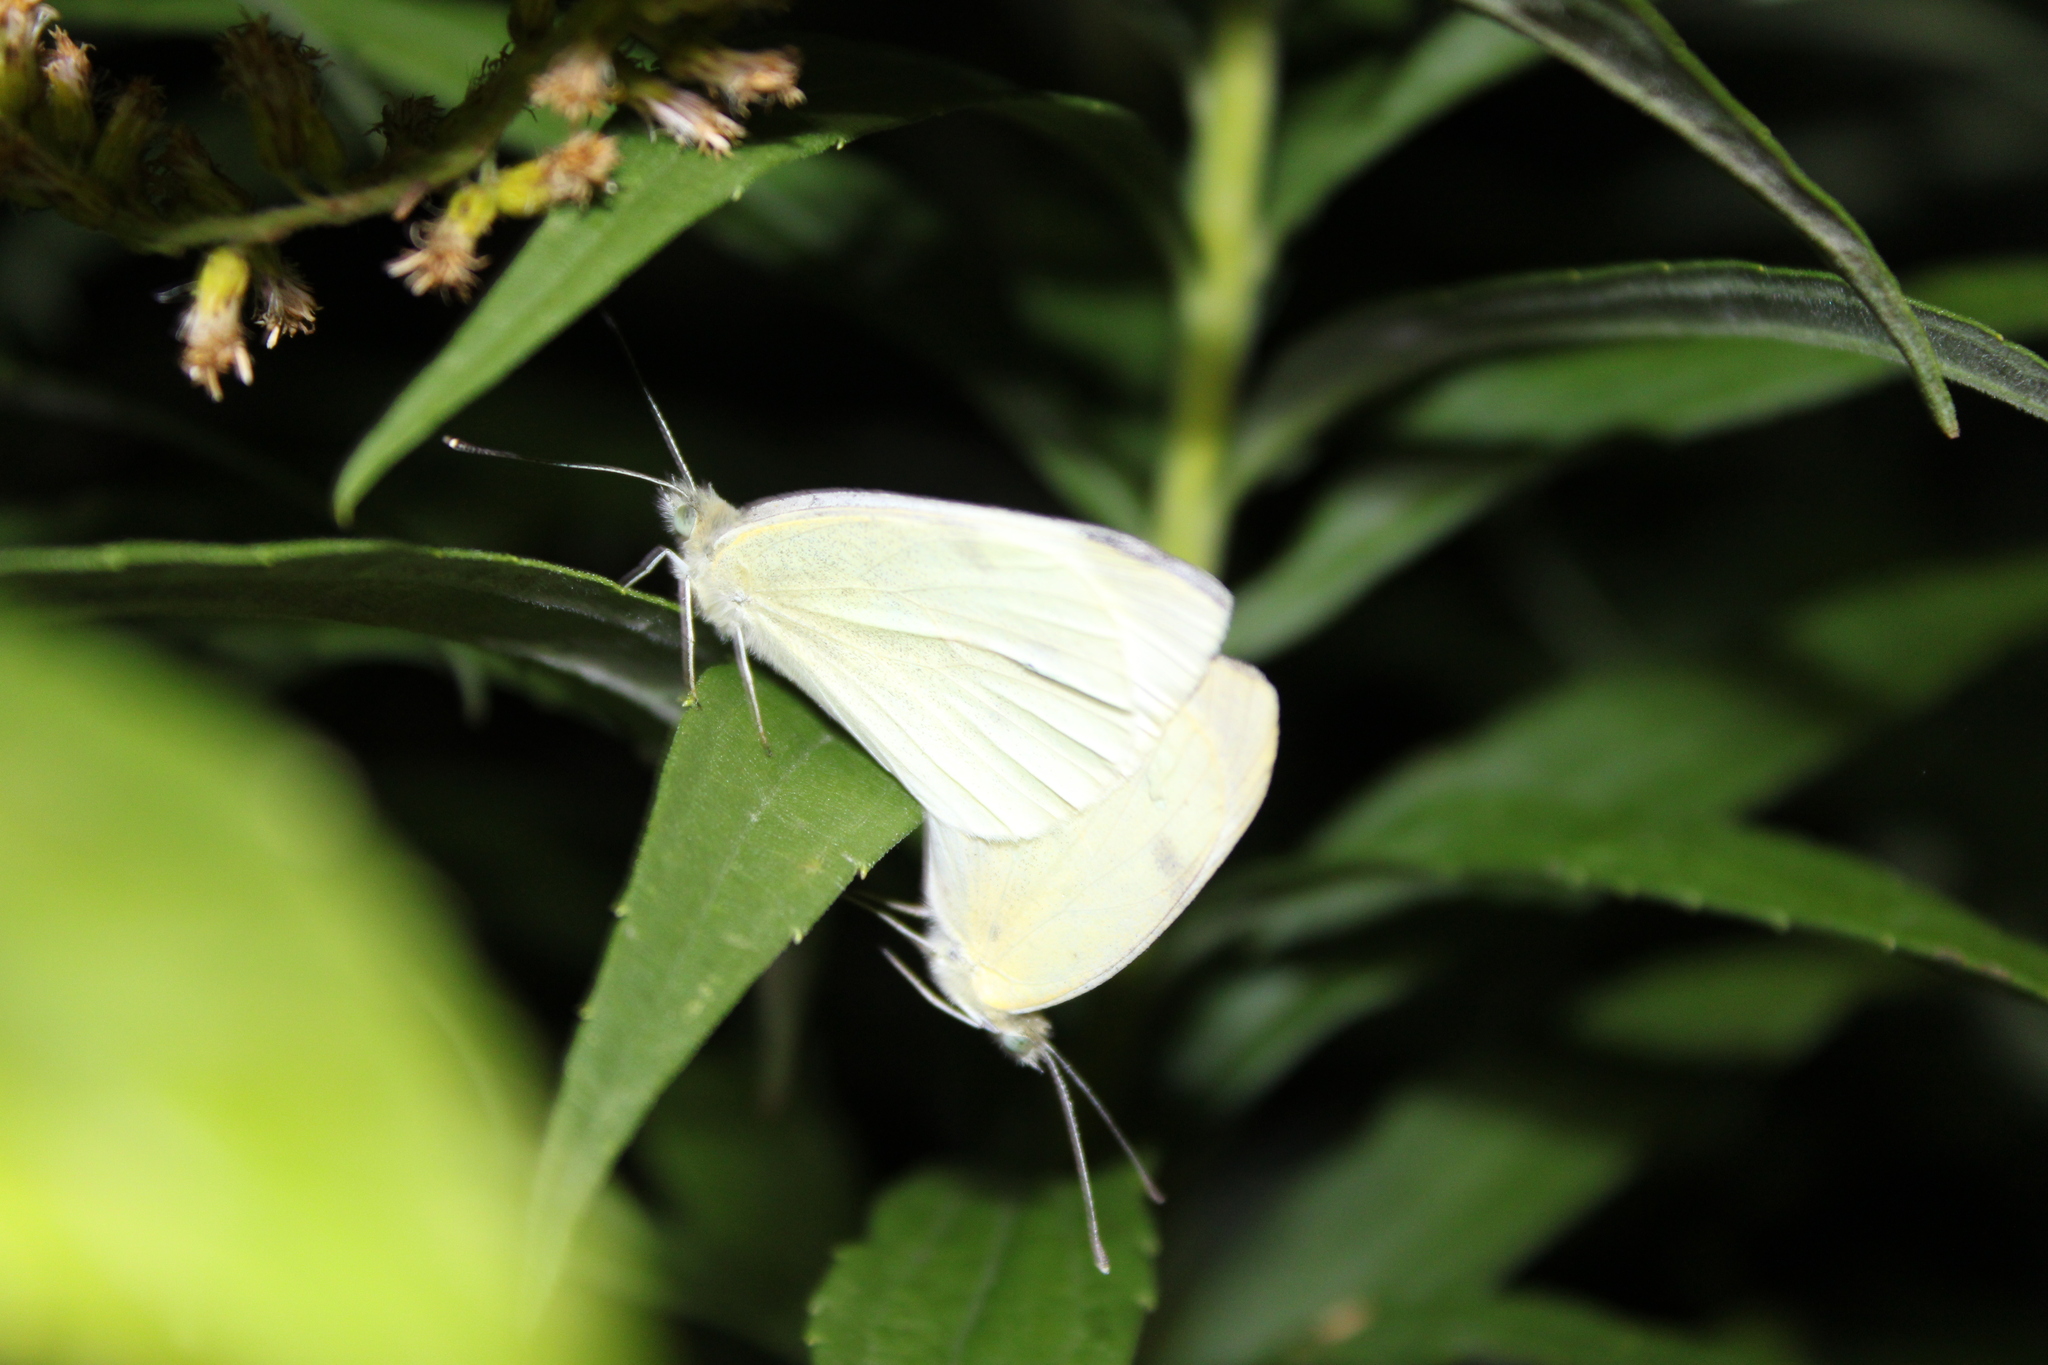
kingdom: Animalia
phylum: Arthropoda
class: Insecta
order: Lepidoptera
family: Pieridae
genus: Pieris
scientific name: Pieris rapae
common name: Small white
